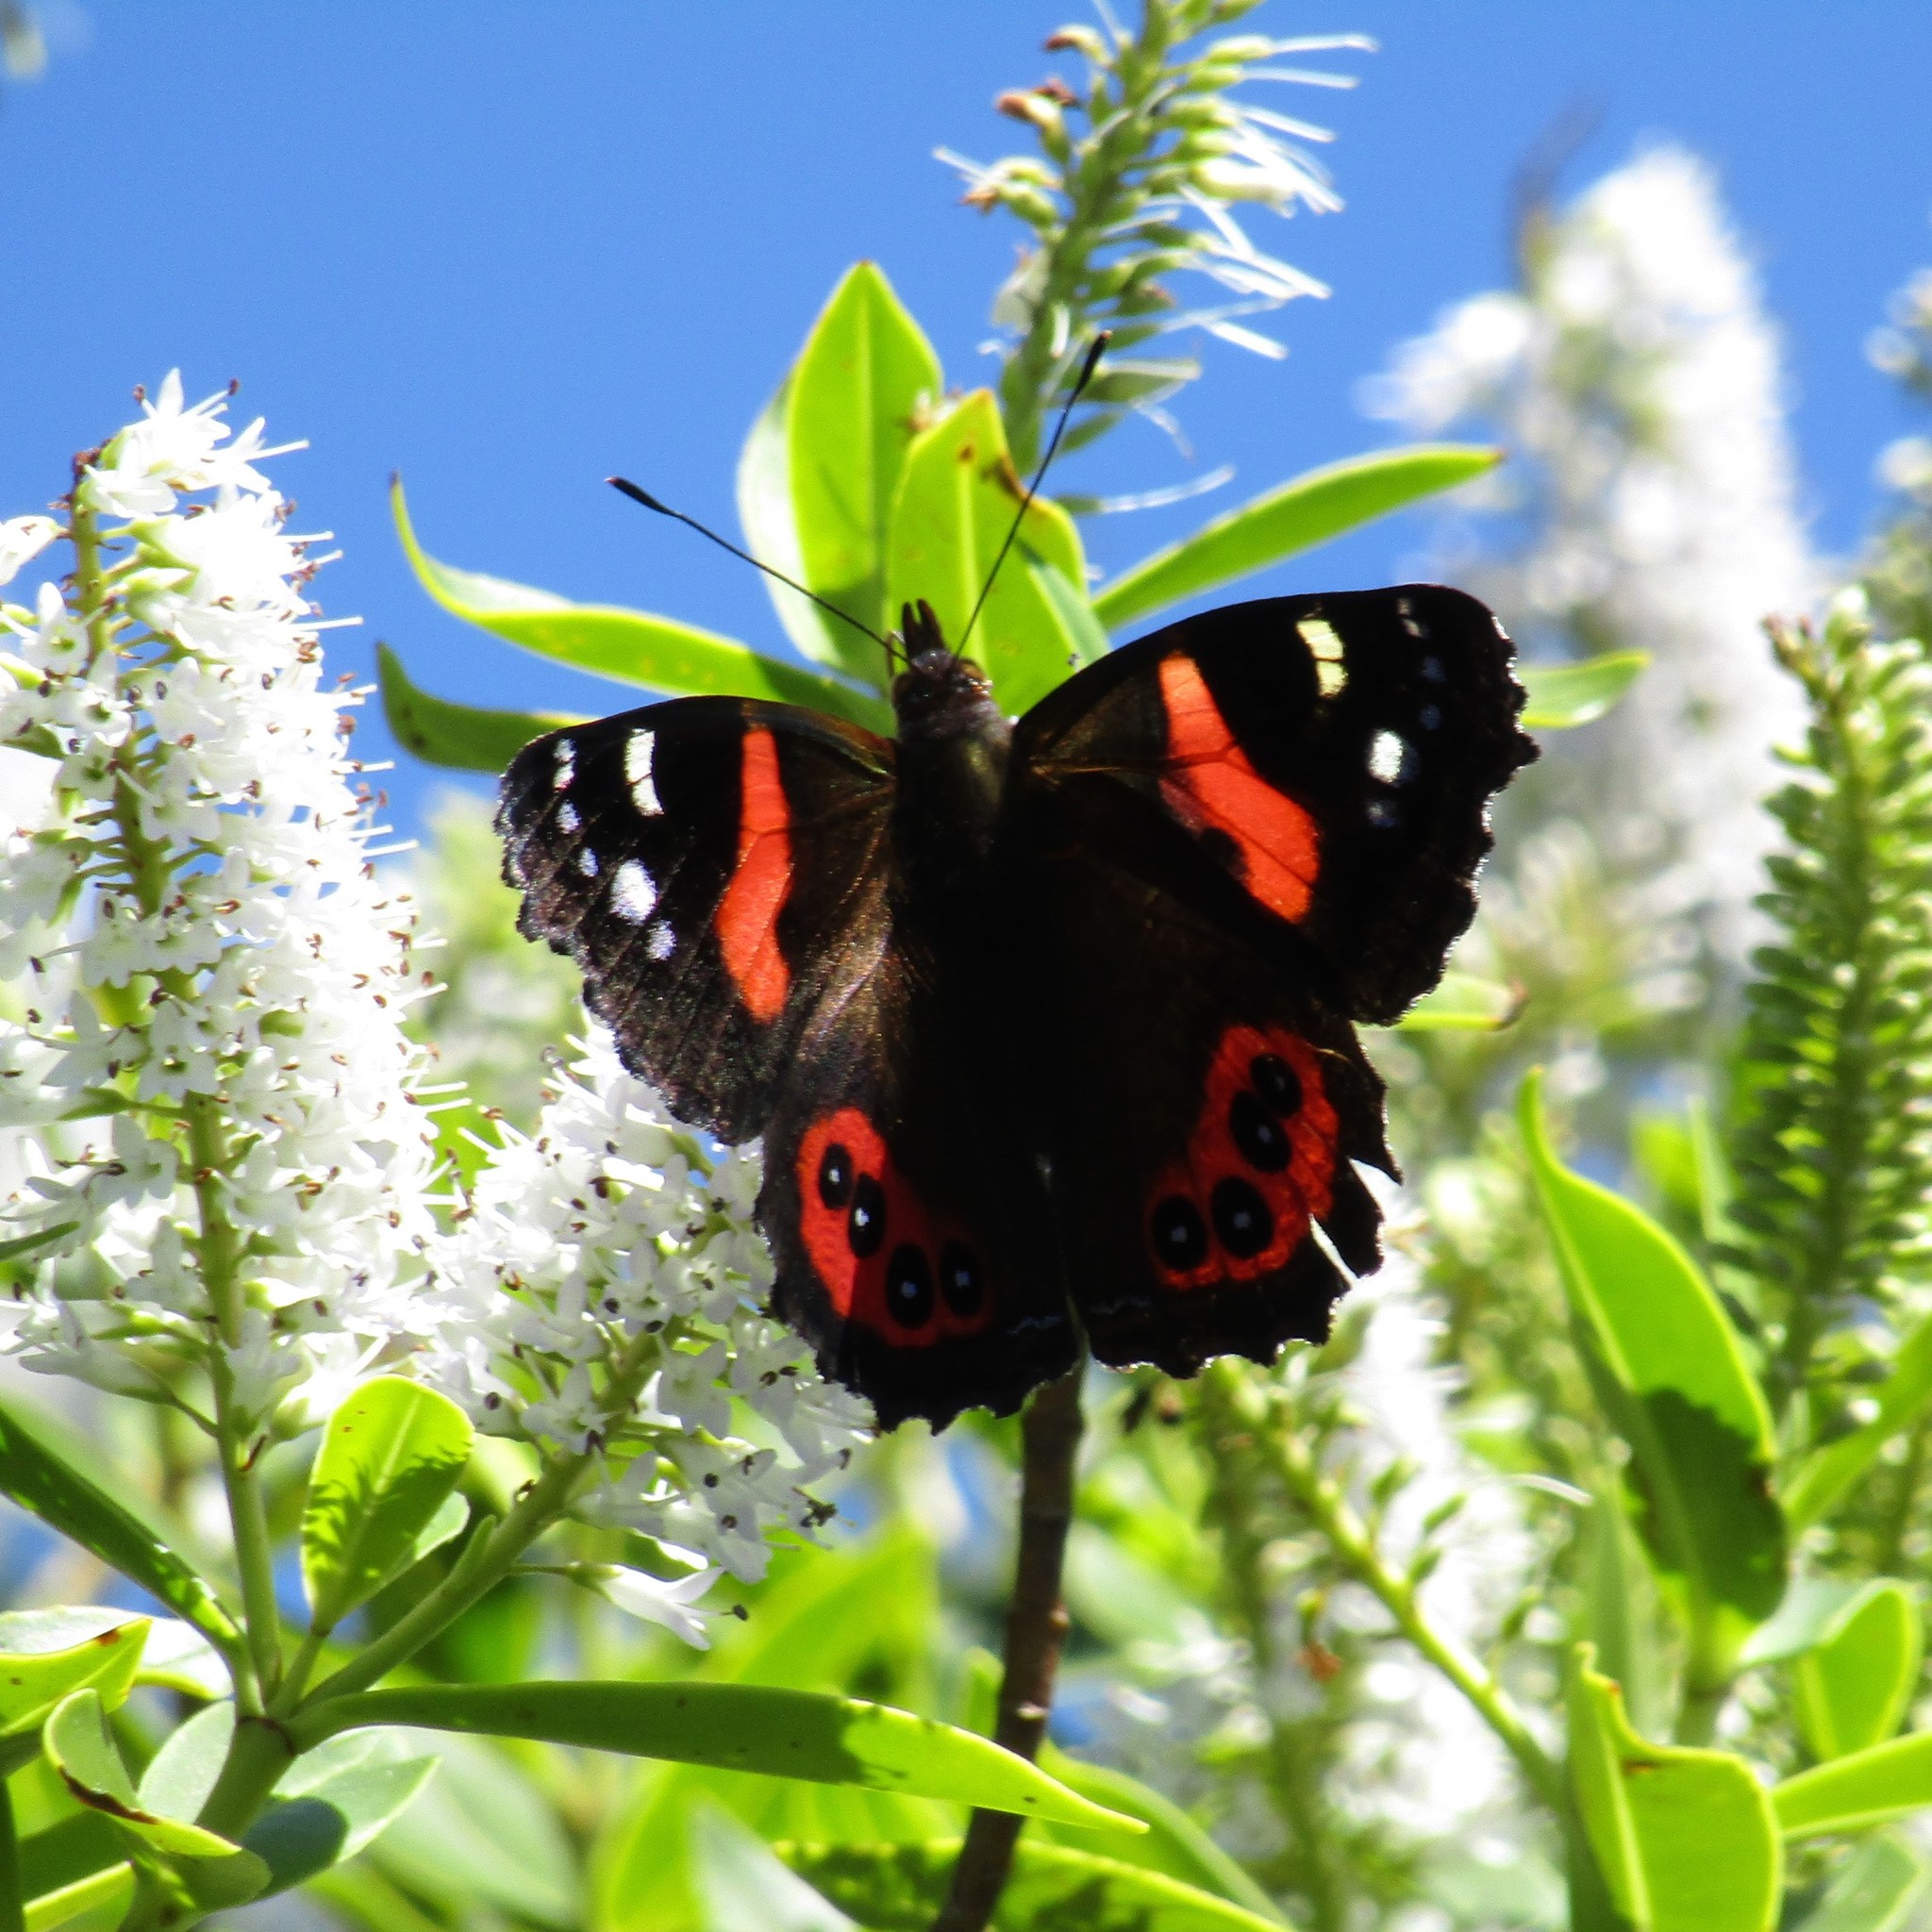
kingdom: Animalia
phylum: Arthropoda
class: Insecta
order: Lepidoptera
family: Nymphalidae
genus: Vanessa
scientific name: Vanessa gonerilla
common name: New zealand red admiral
